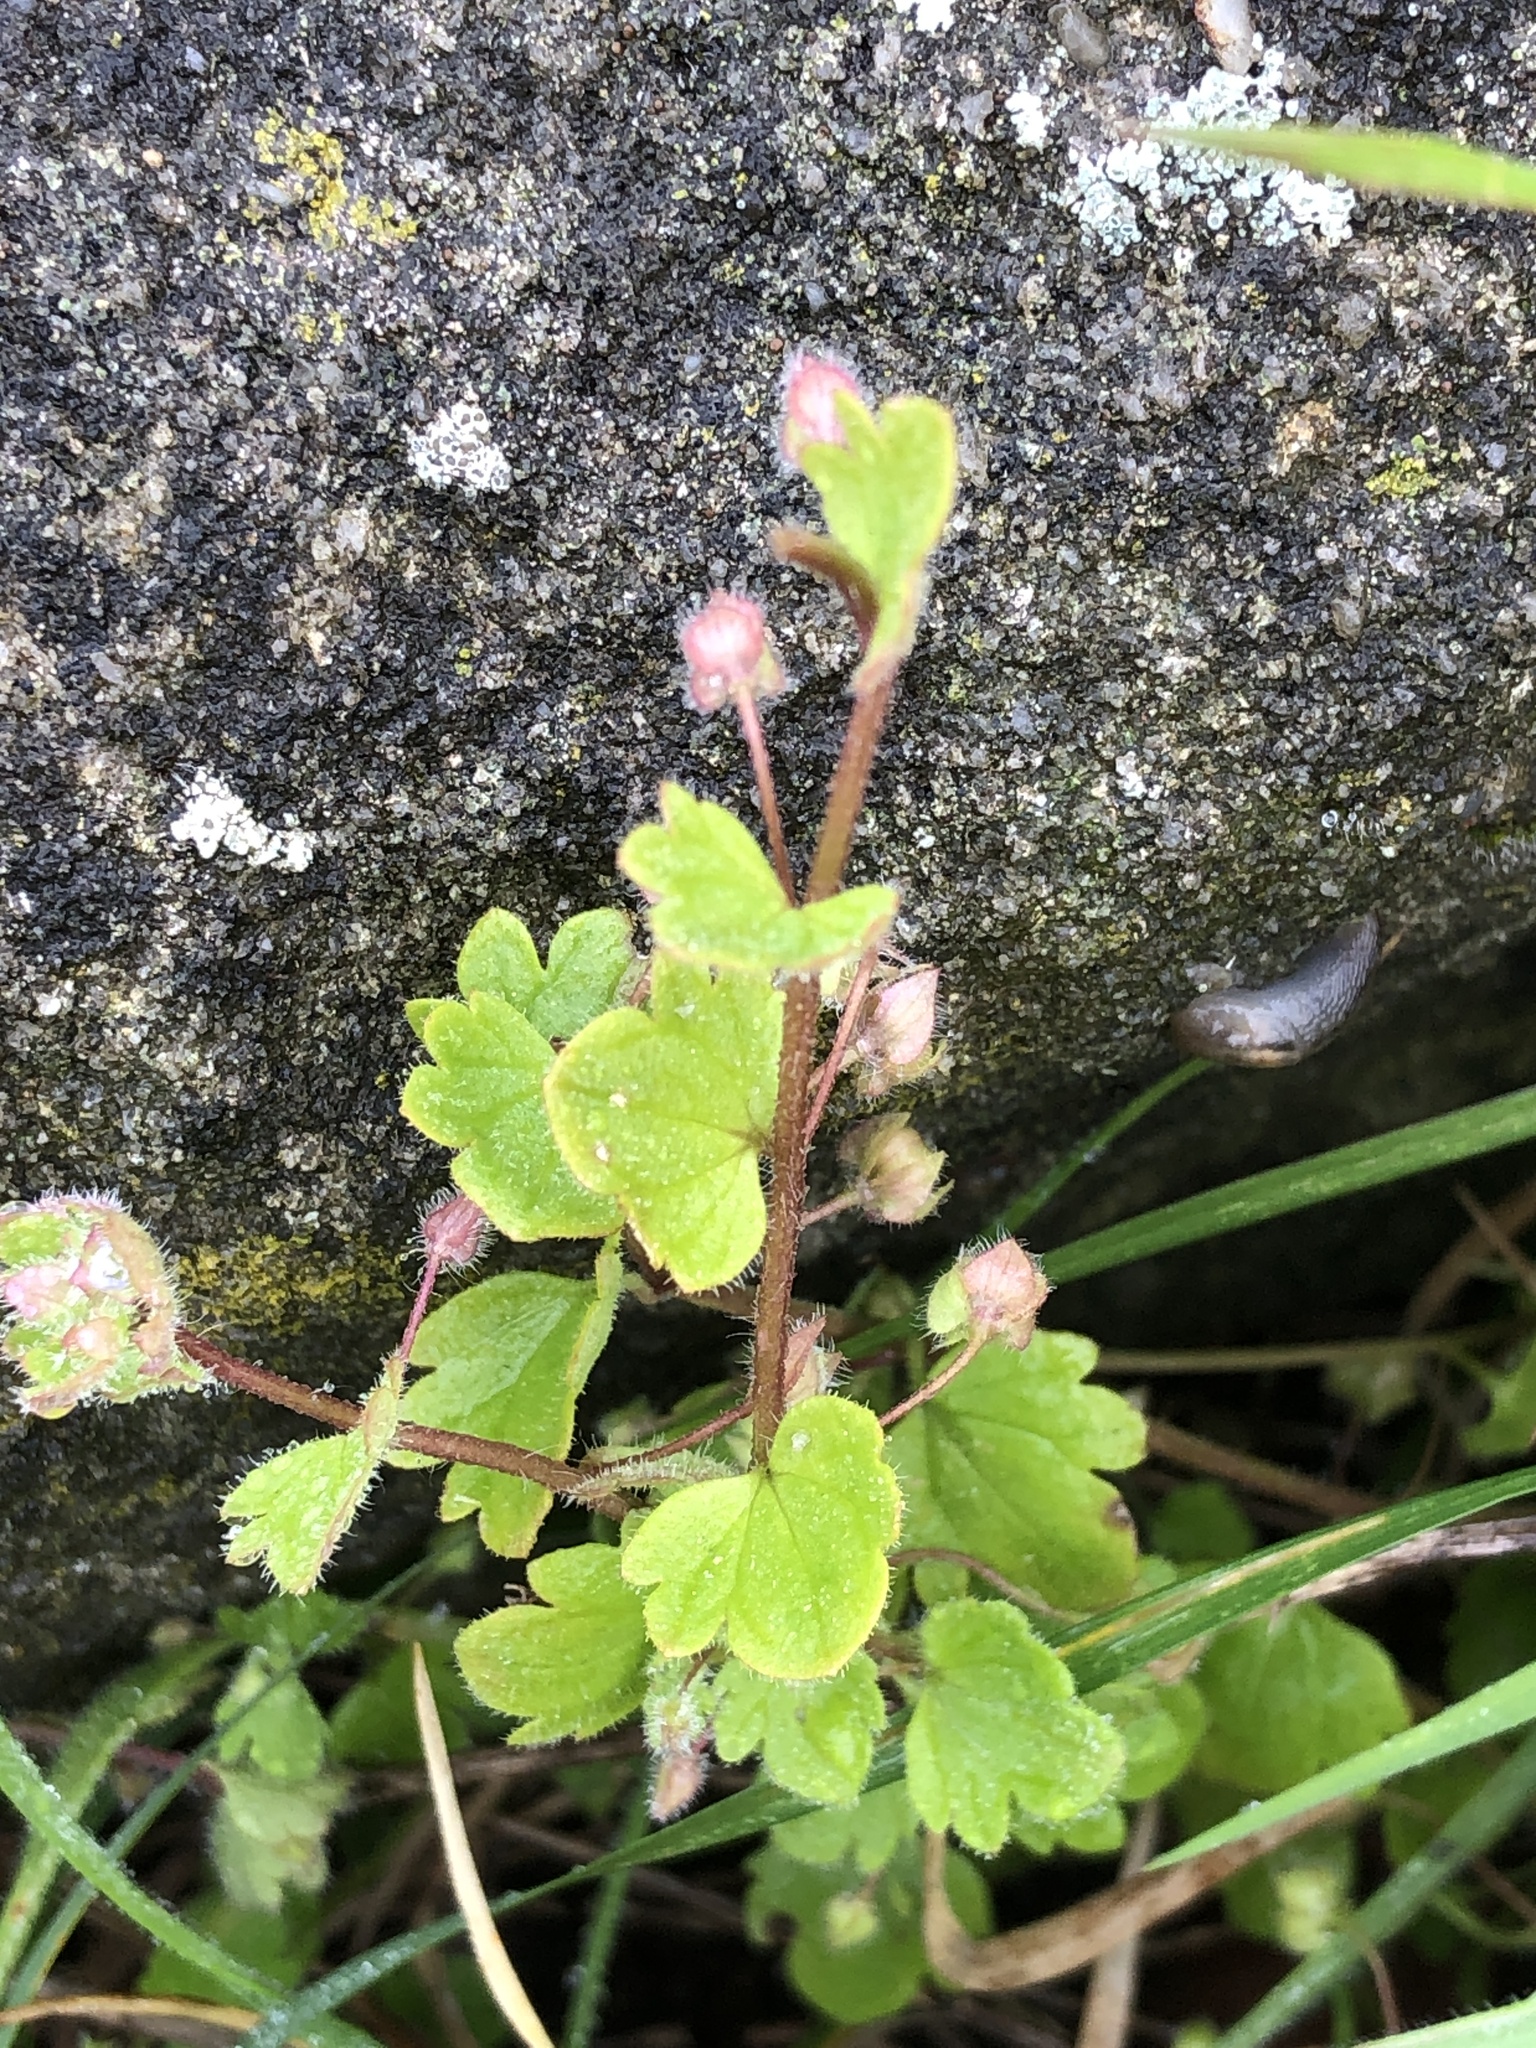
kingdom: Plantae
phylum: Tracheophyta
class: Magnoliopsida
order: Lamiales
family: Plantaginaceae
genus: Veronica
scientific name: Veronica hederifolia
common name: Ivy-leaved speedwell
